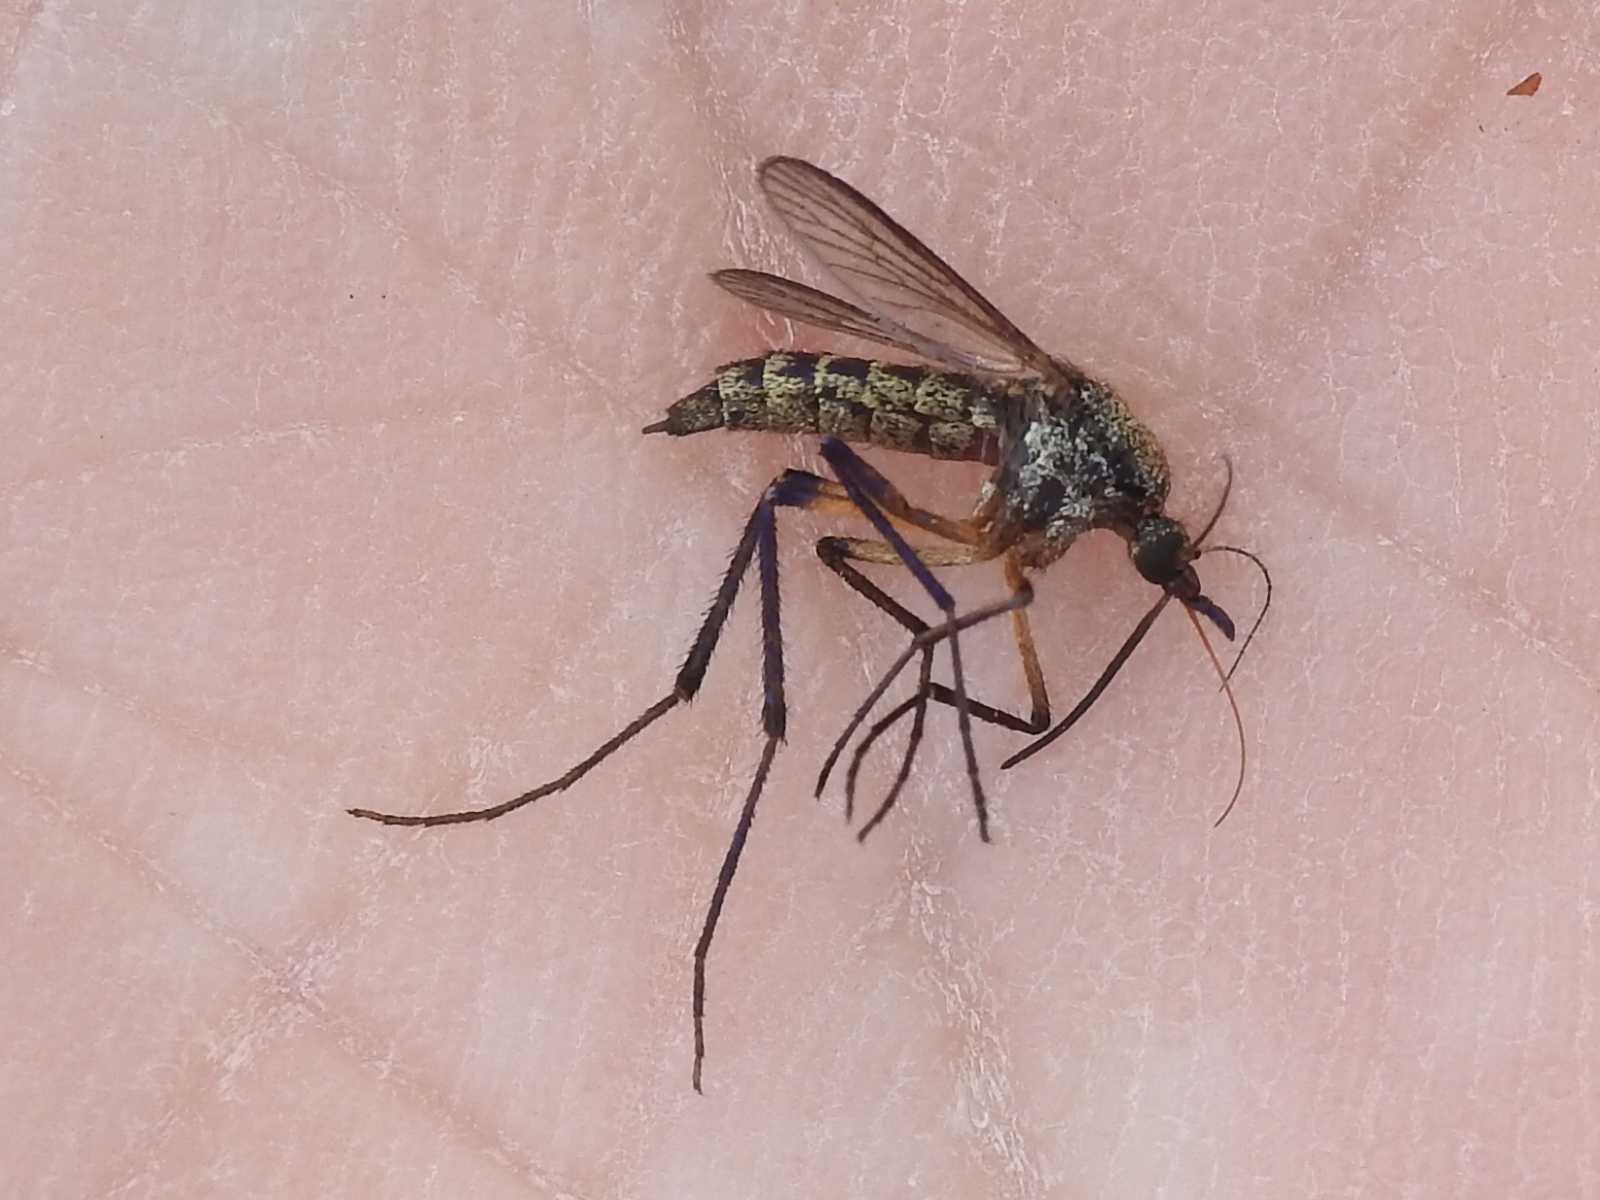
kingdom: Animalia
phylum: Arthropoda
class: Insecta
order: Diptera
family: Culicidae
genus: Psorophora
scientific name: Psorophora cyanescens
